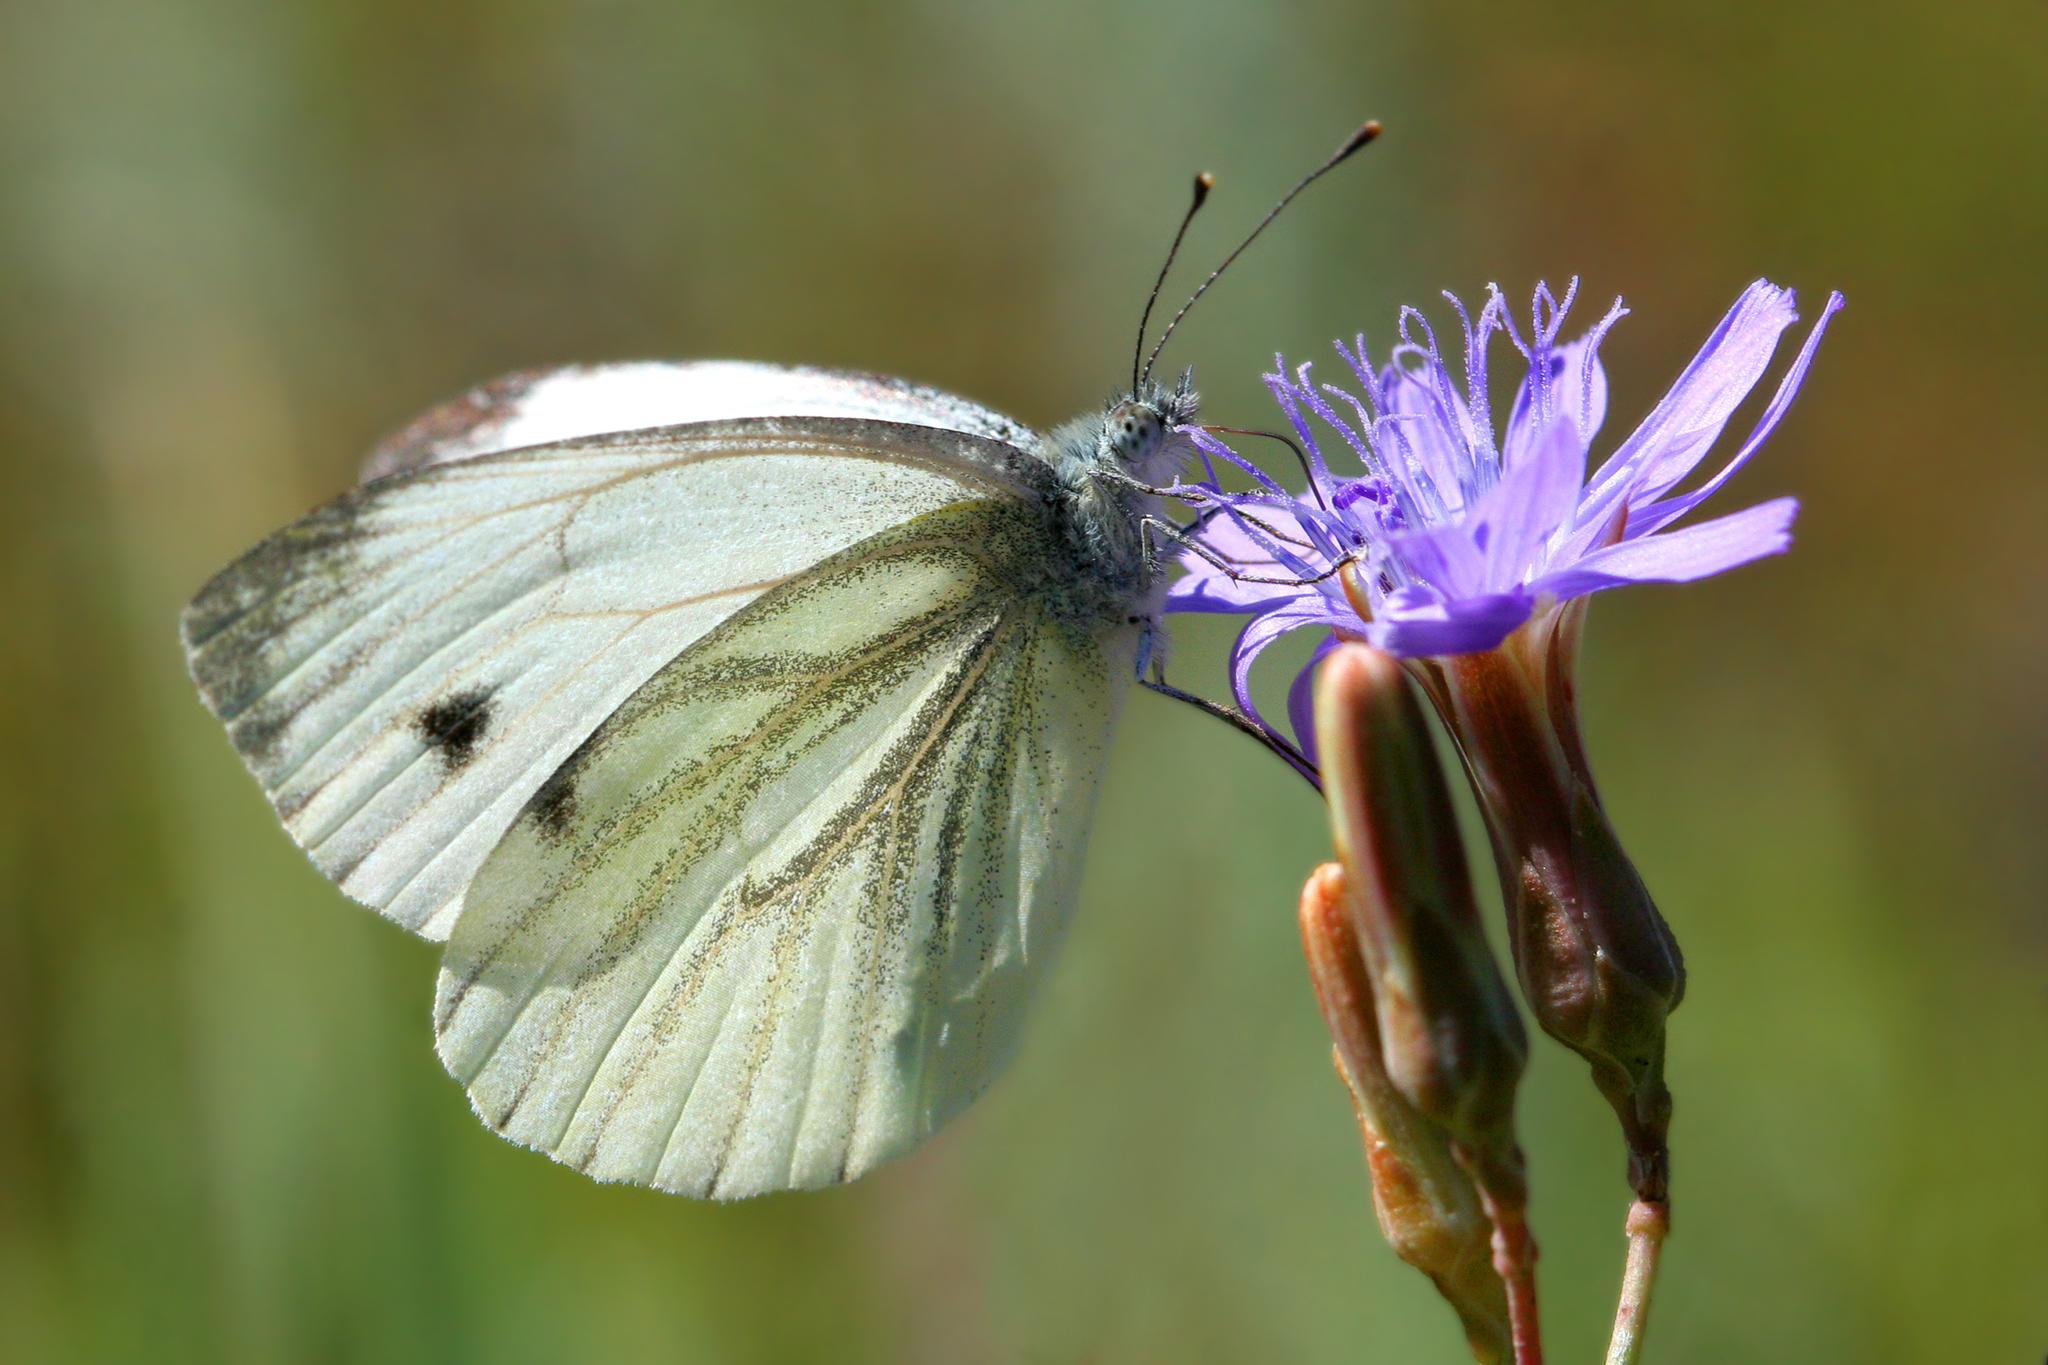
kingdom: Animalia
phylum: Arthropoda
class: Insecta
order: Lepidoptera
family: Pieridae
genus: Pieris
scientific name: Pieris napi
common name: Green-veined white
